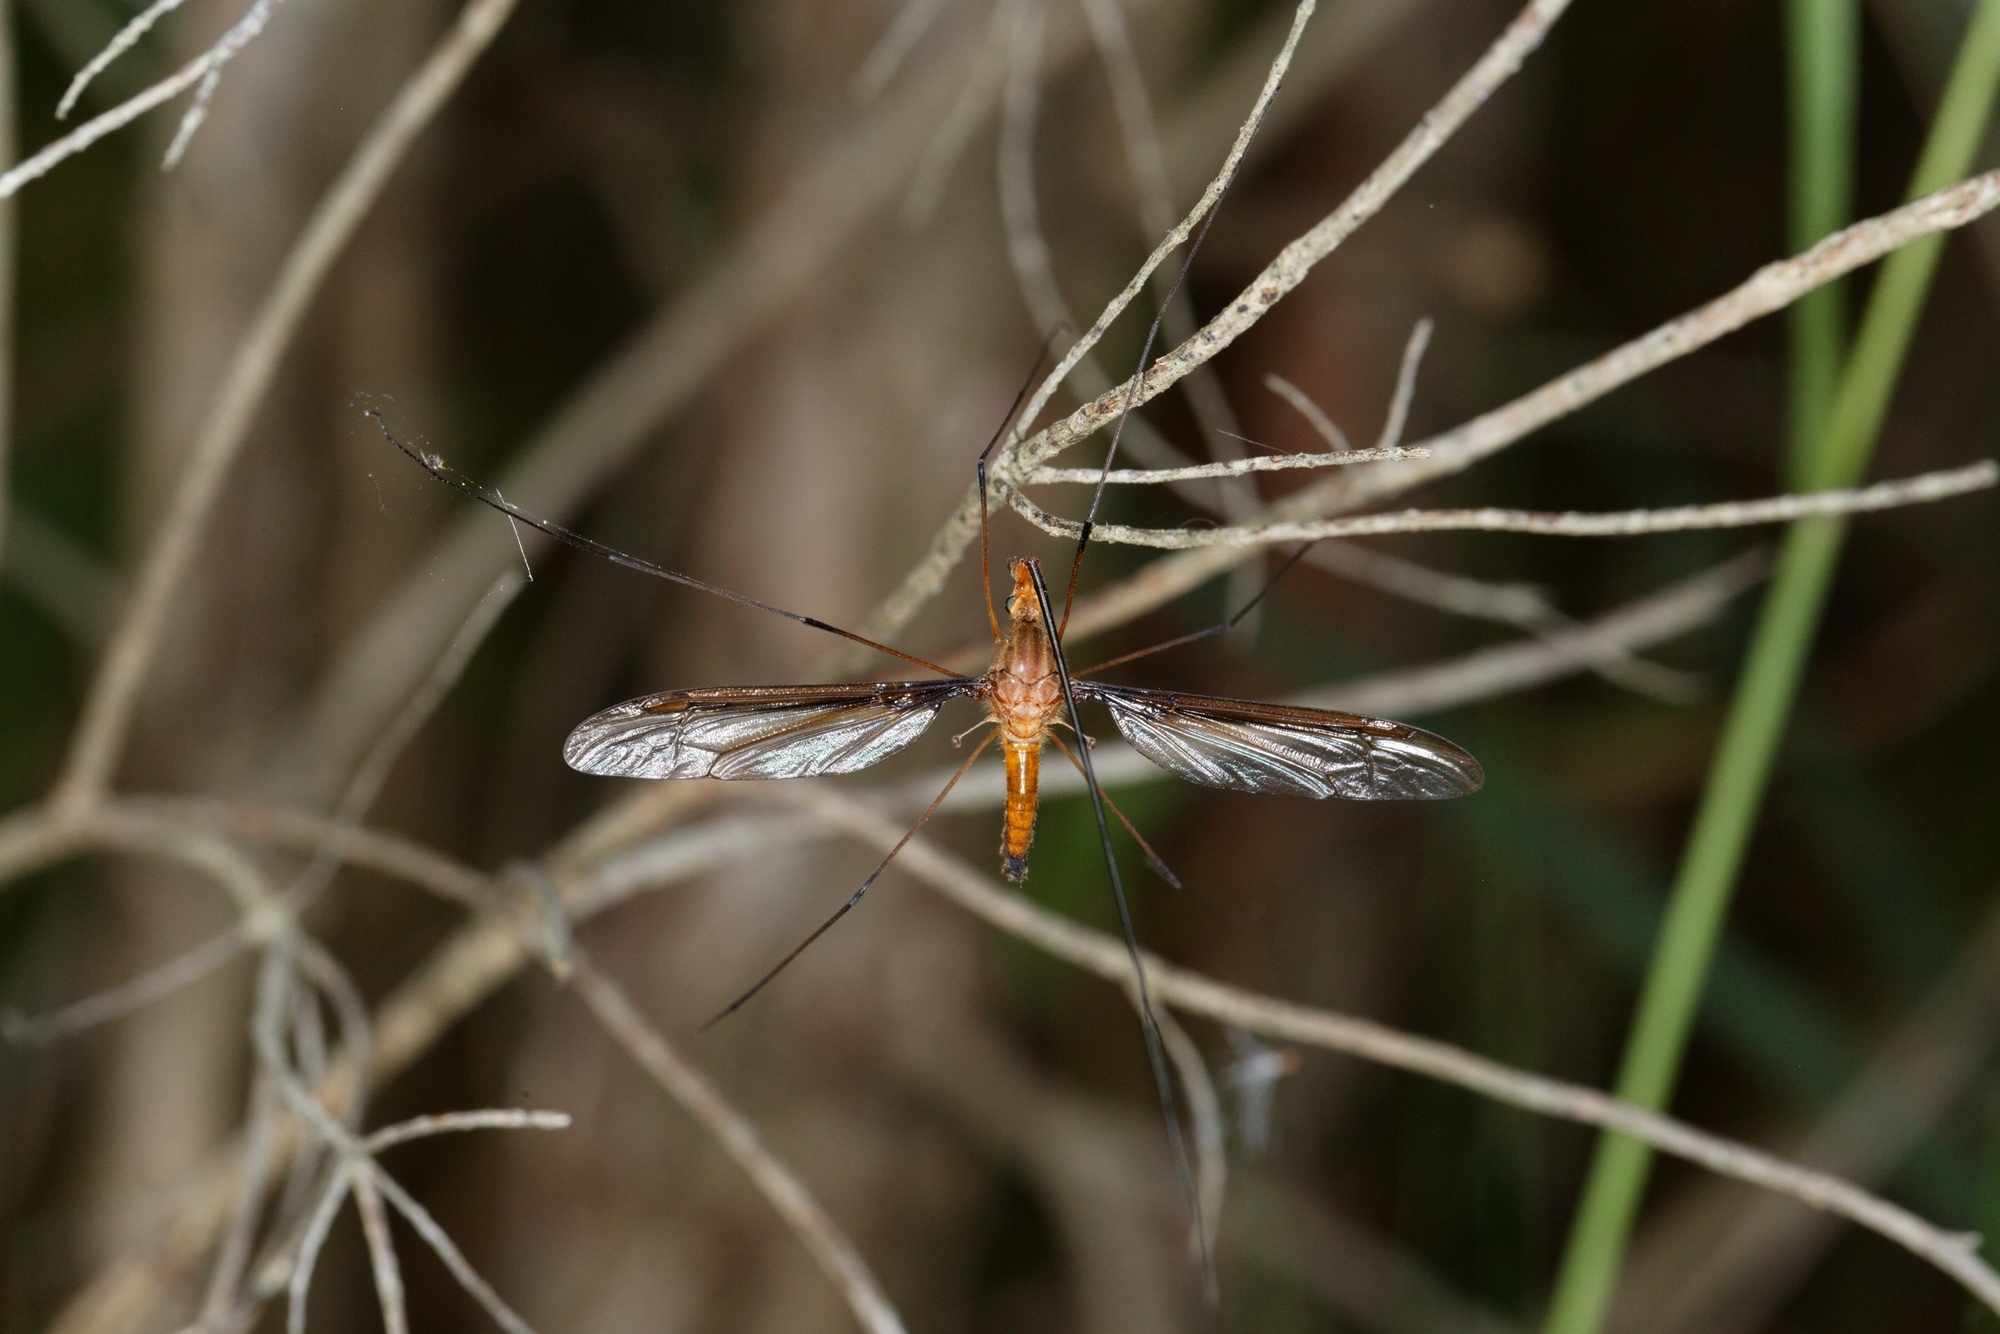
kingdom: Animalia
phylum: Arthropoda
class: Insecta
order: Diptera
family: Tipulidae
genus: Leptotarsus
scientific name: Leptotarsus costalis
